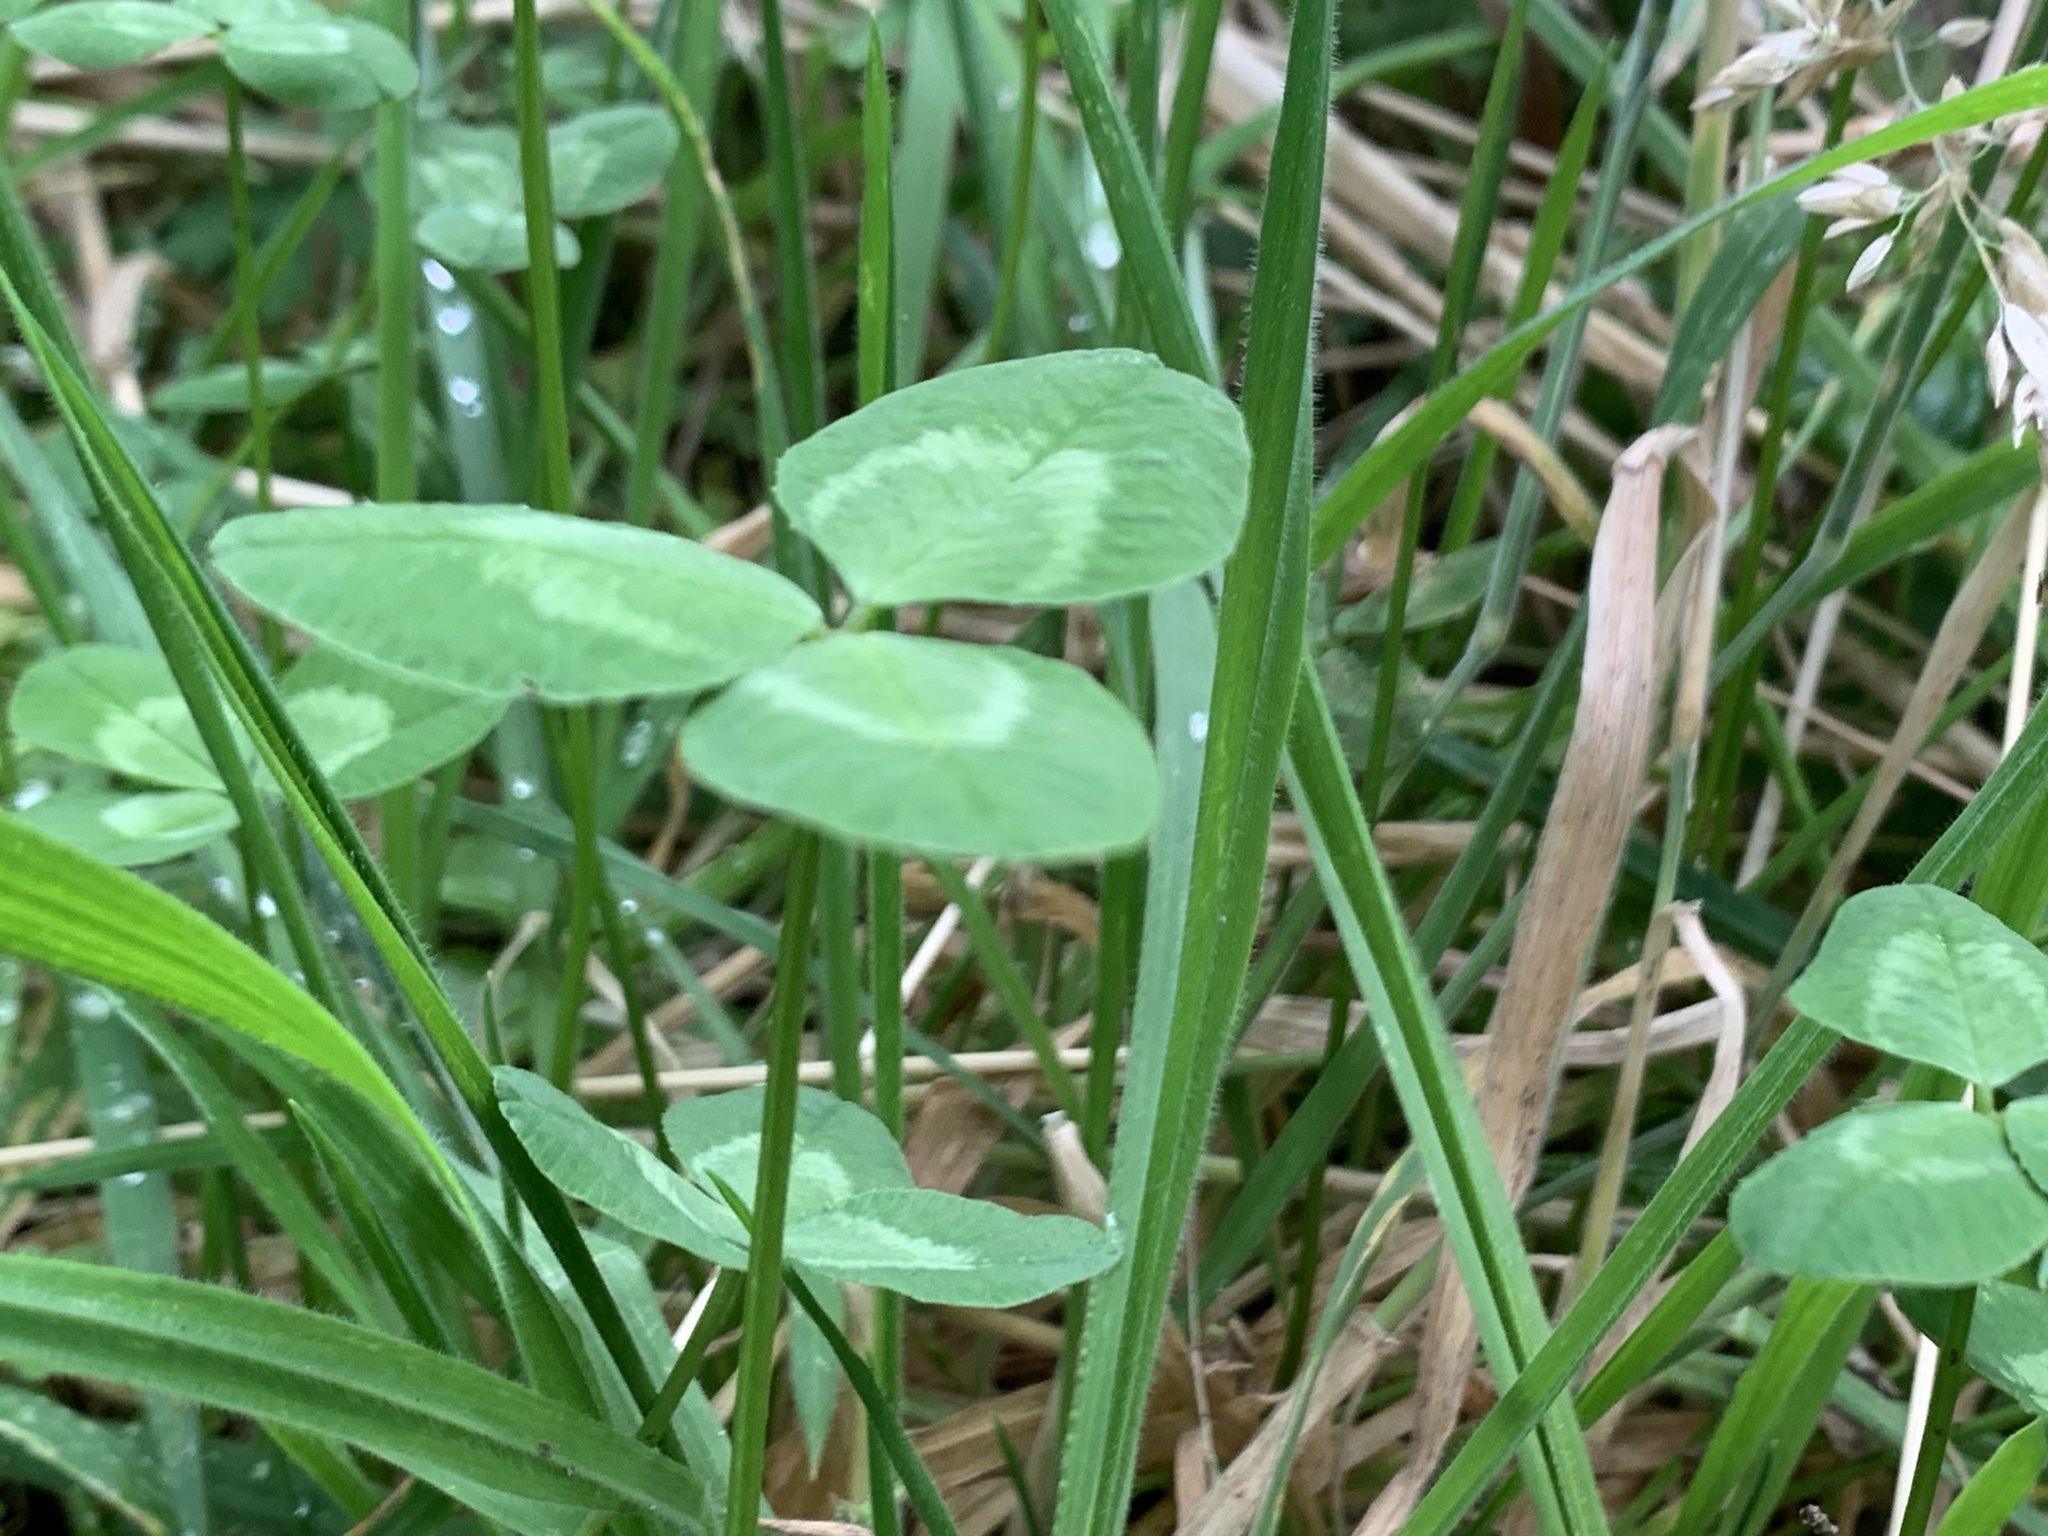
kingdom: Plantae
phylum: Tracheophyta
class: Magnoliopsida
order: Fabales
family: Fabaceae
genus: Trifolium
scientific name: Trifolium repens
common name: White clover
